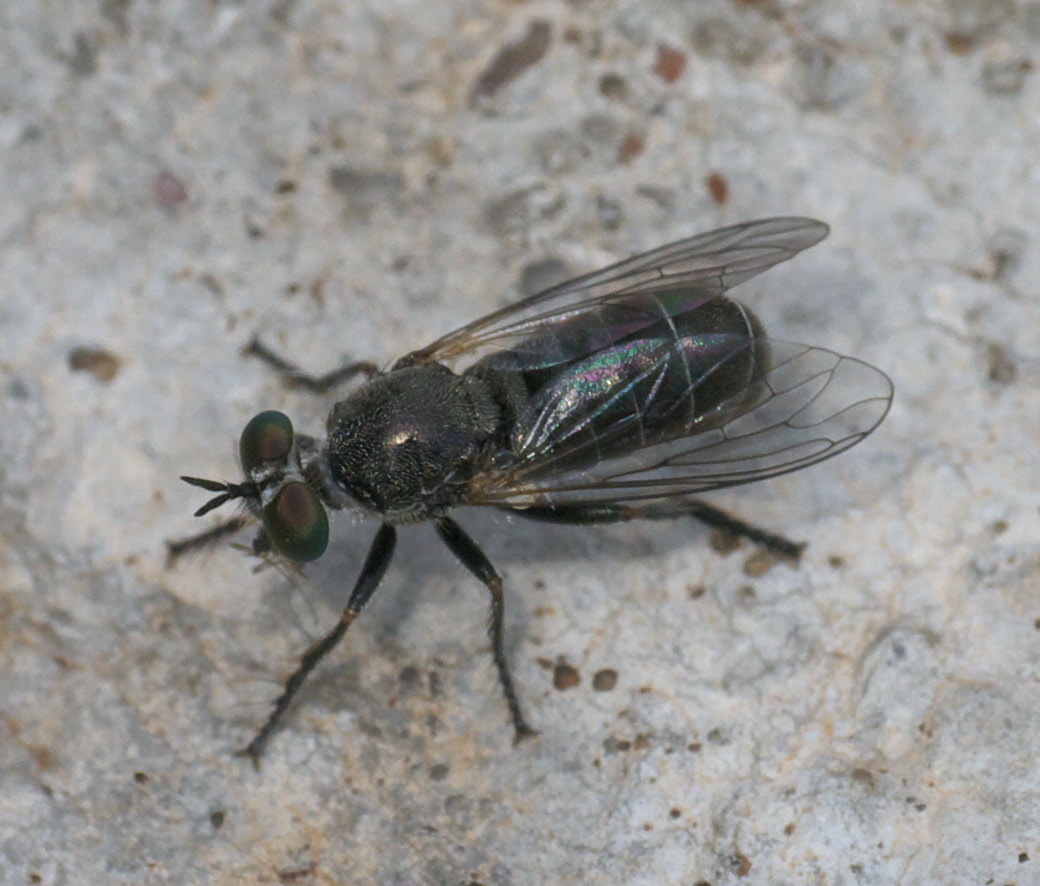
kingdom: Animalia
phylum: Arthropoda
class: Insecta
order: Diptera
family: Asilidae
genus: Atomosia
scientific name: Atomosia melanopogon
